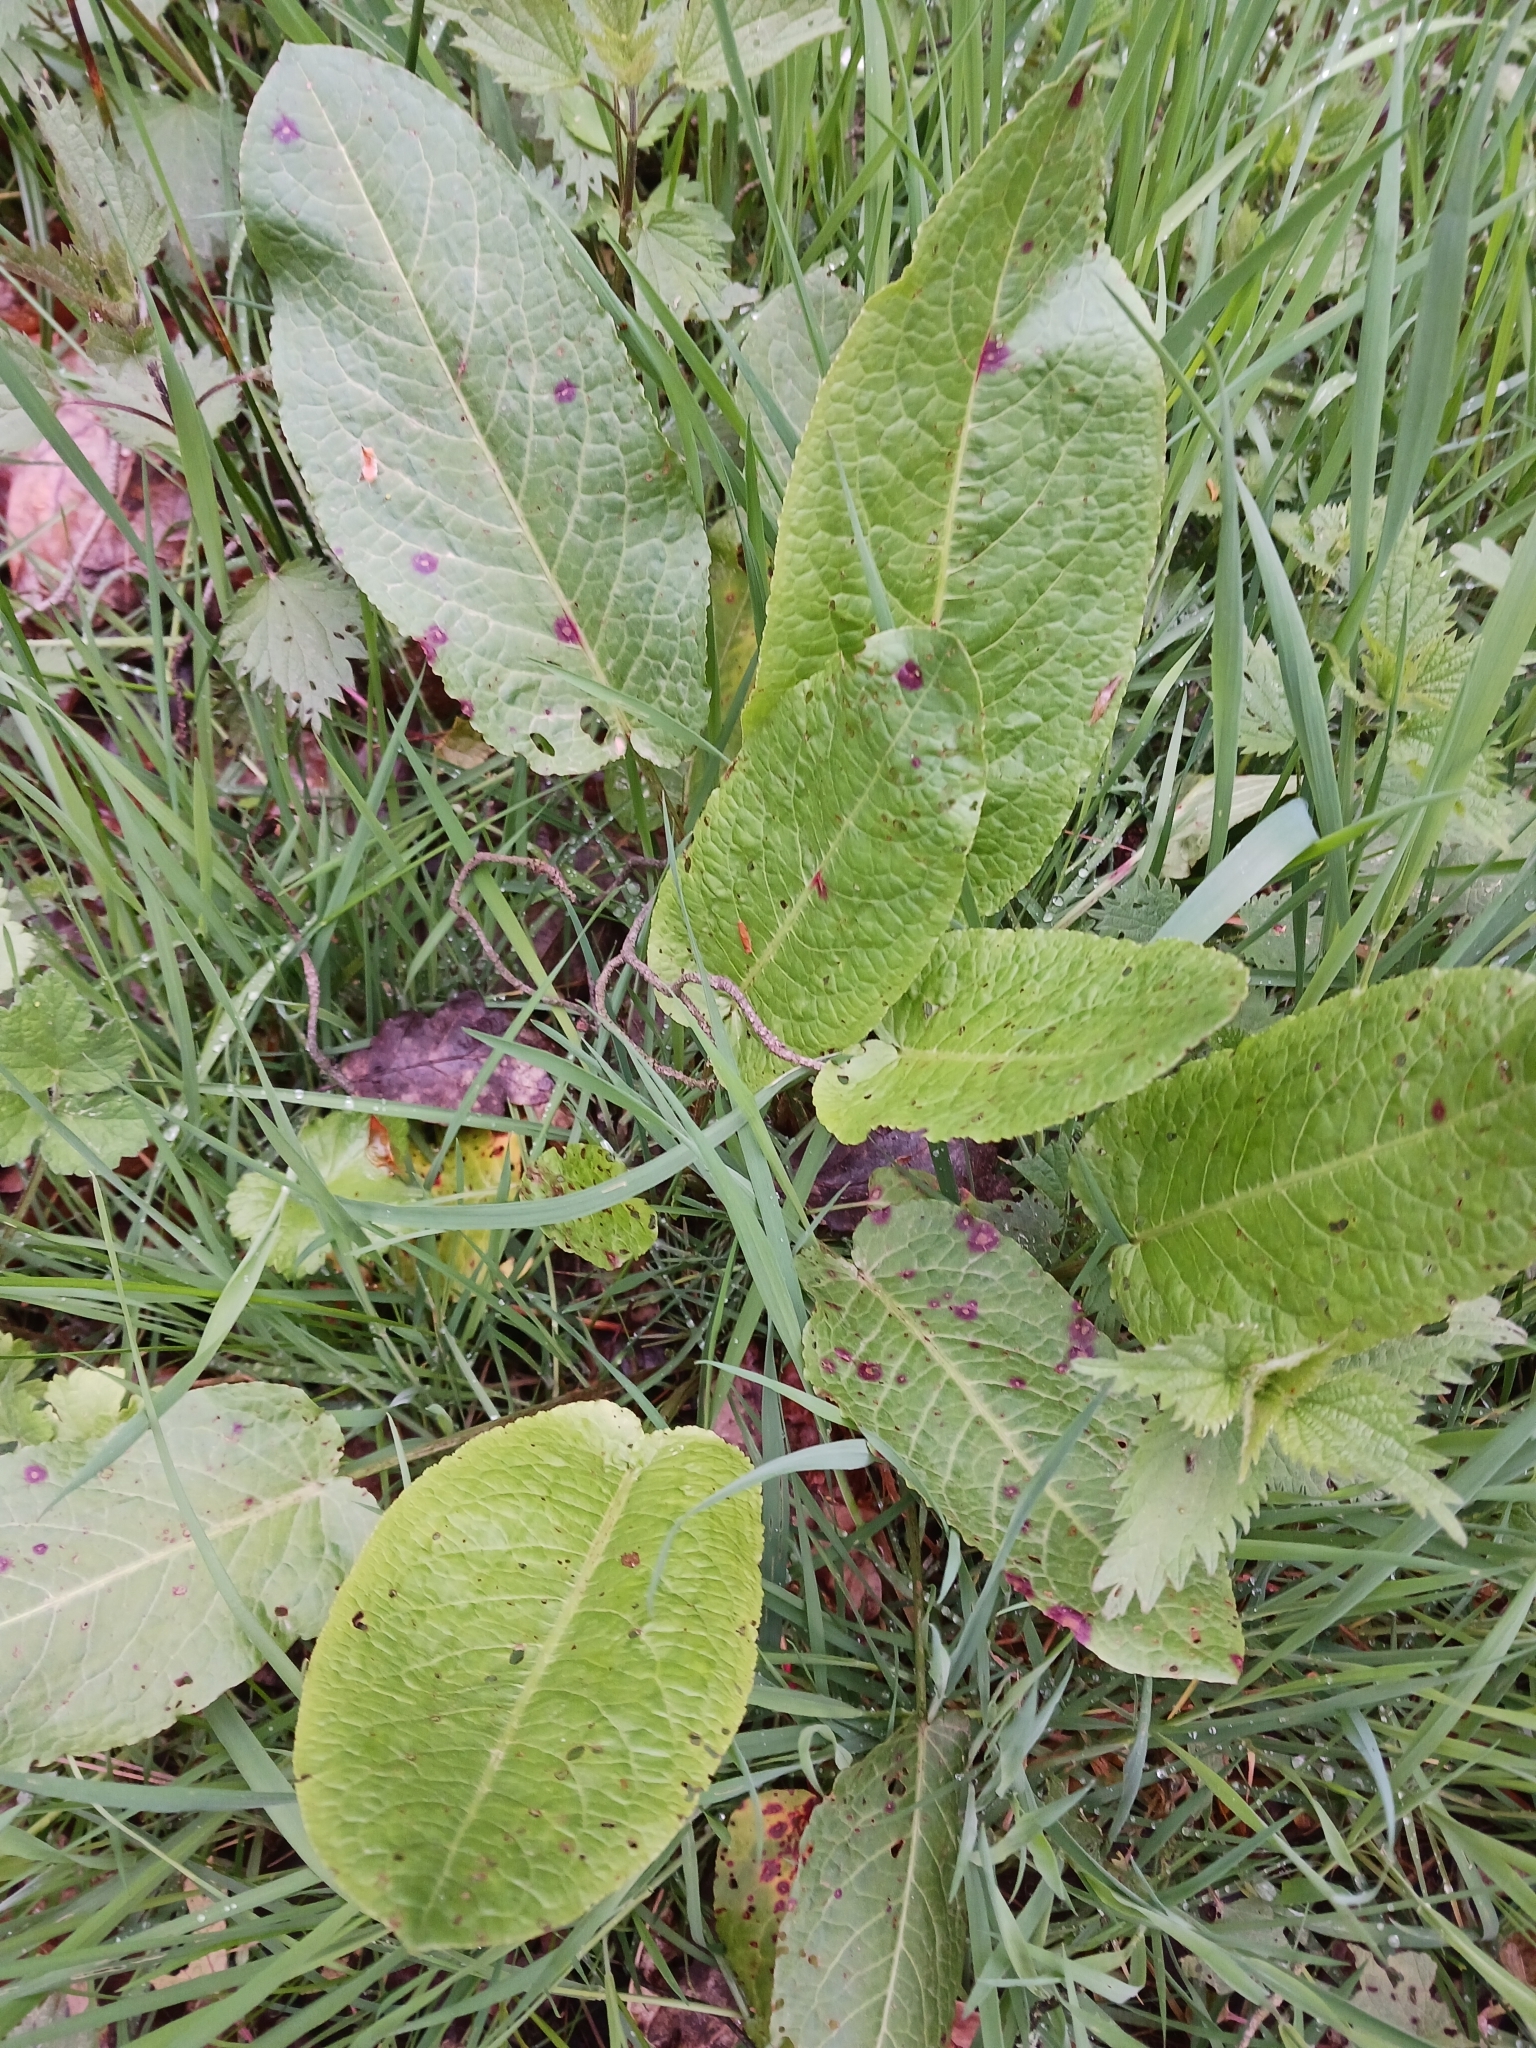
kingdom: Plantae
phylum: Tracheophyta
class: Magnoliopsida
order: Caryophyllales
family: Polygonaceae
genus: Rumex
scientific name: Rumex obtusifolius
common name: Bitter dock
